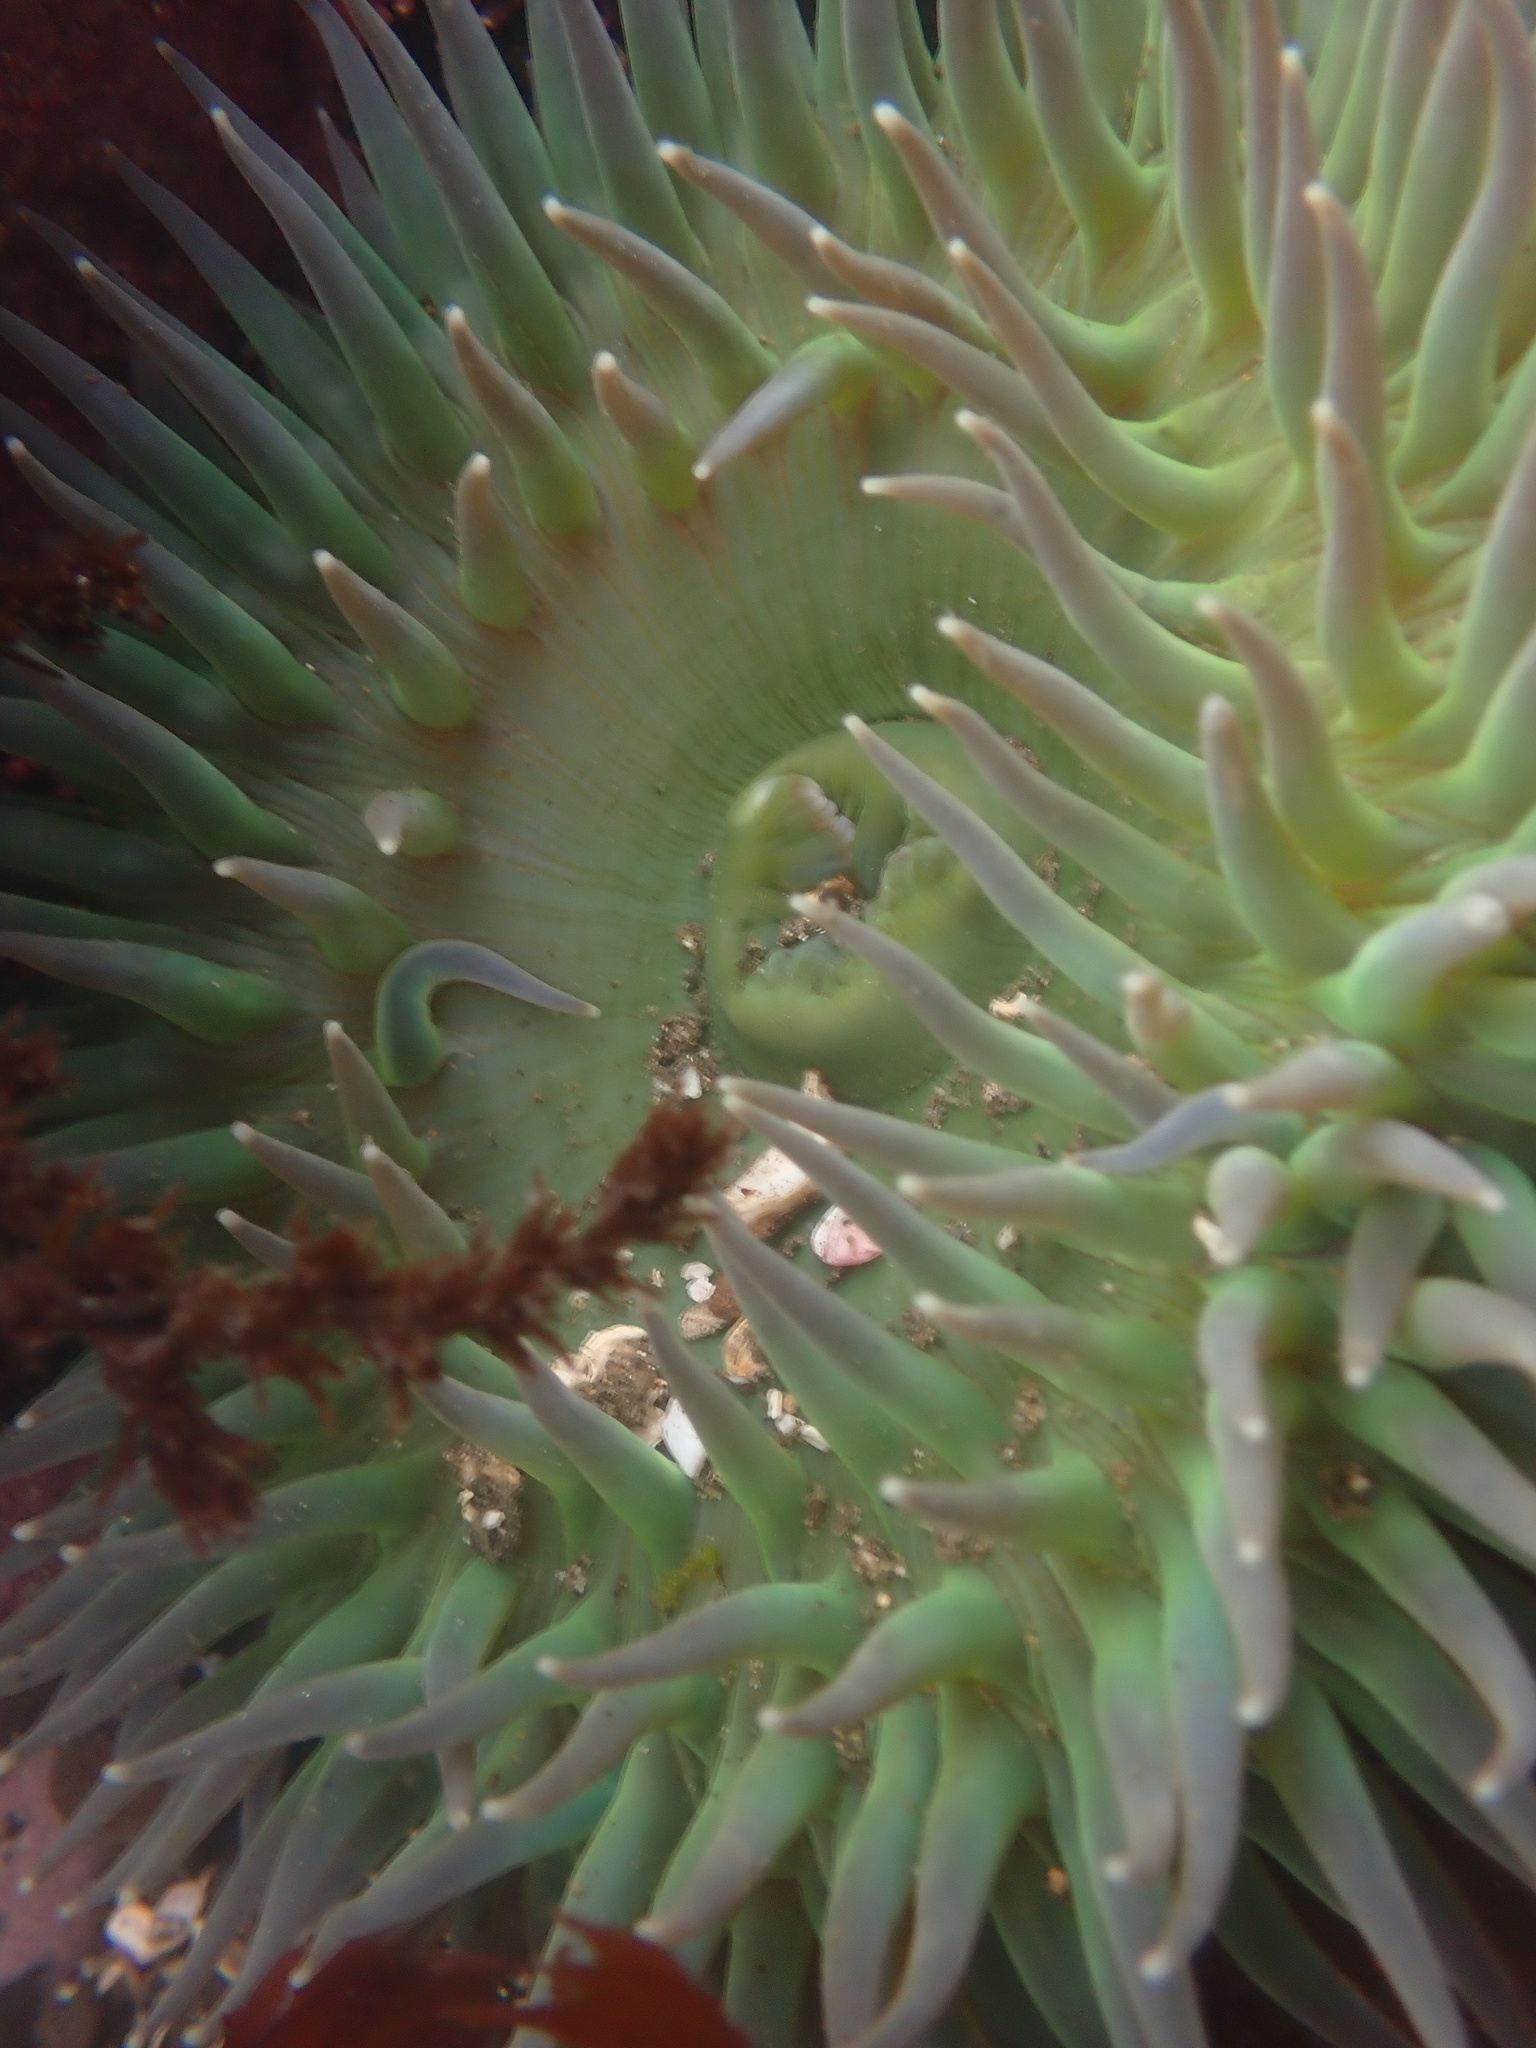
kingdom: Animalia
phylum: Cnidaria
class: Anthozoa
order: Actiniaria
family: Actiniidae
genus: Anthopleura
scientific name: Anthopleura xanthogrammica
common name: Giant green anemone
